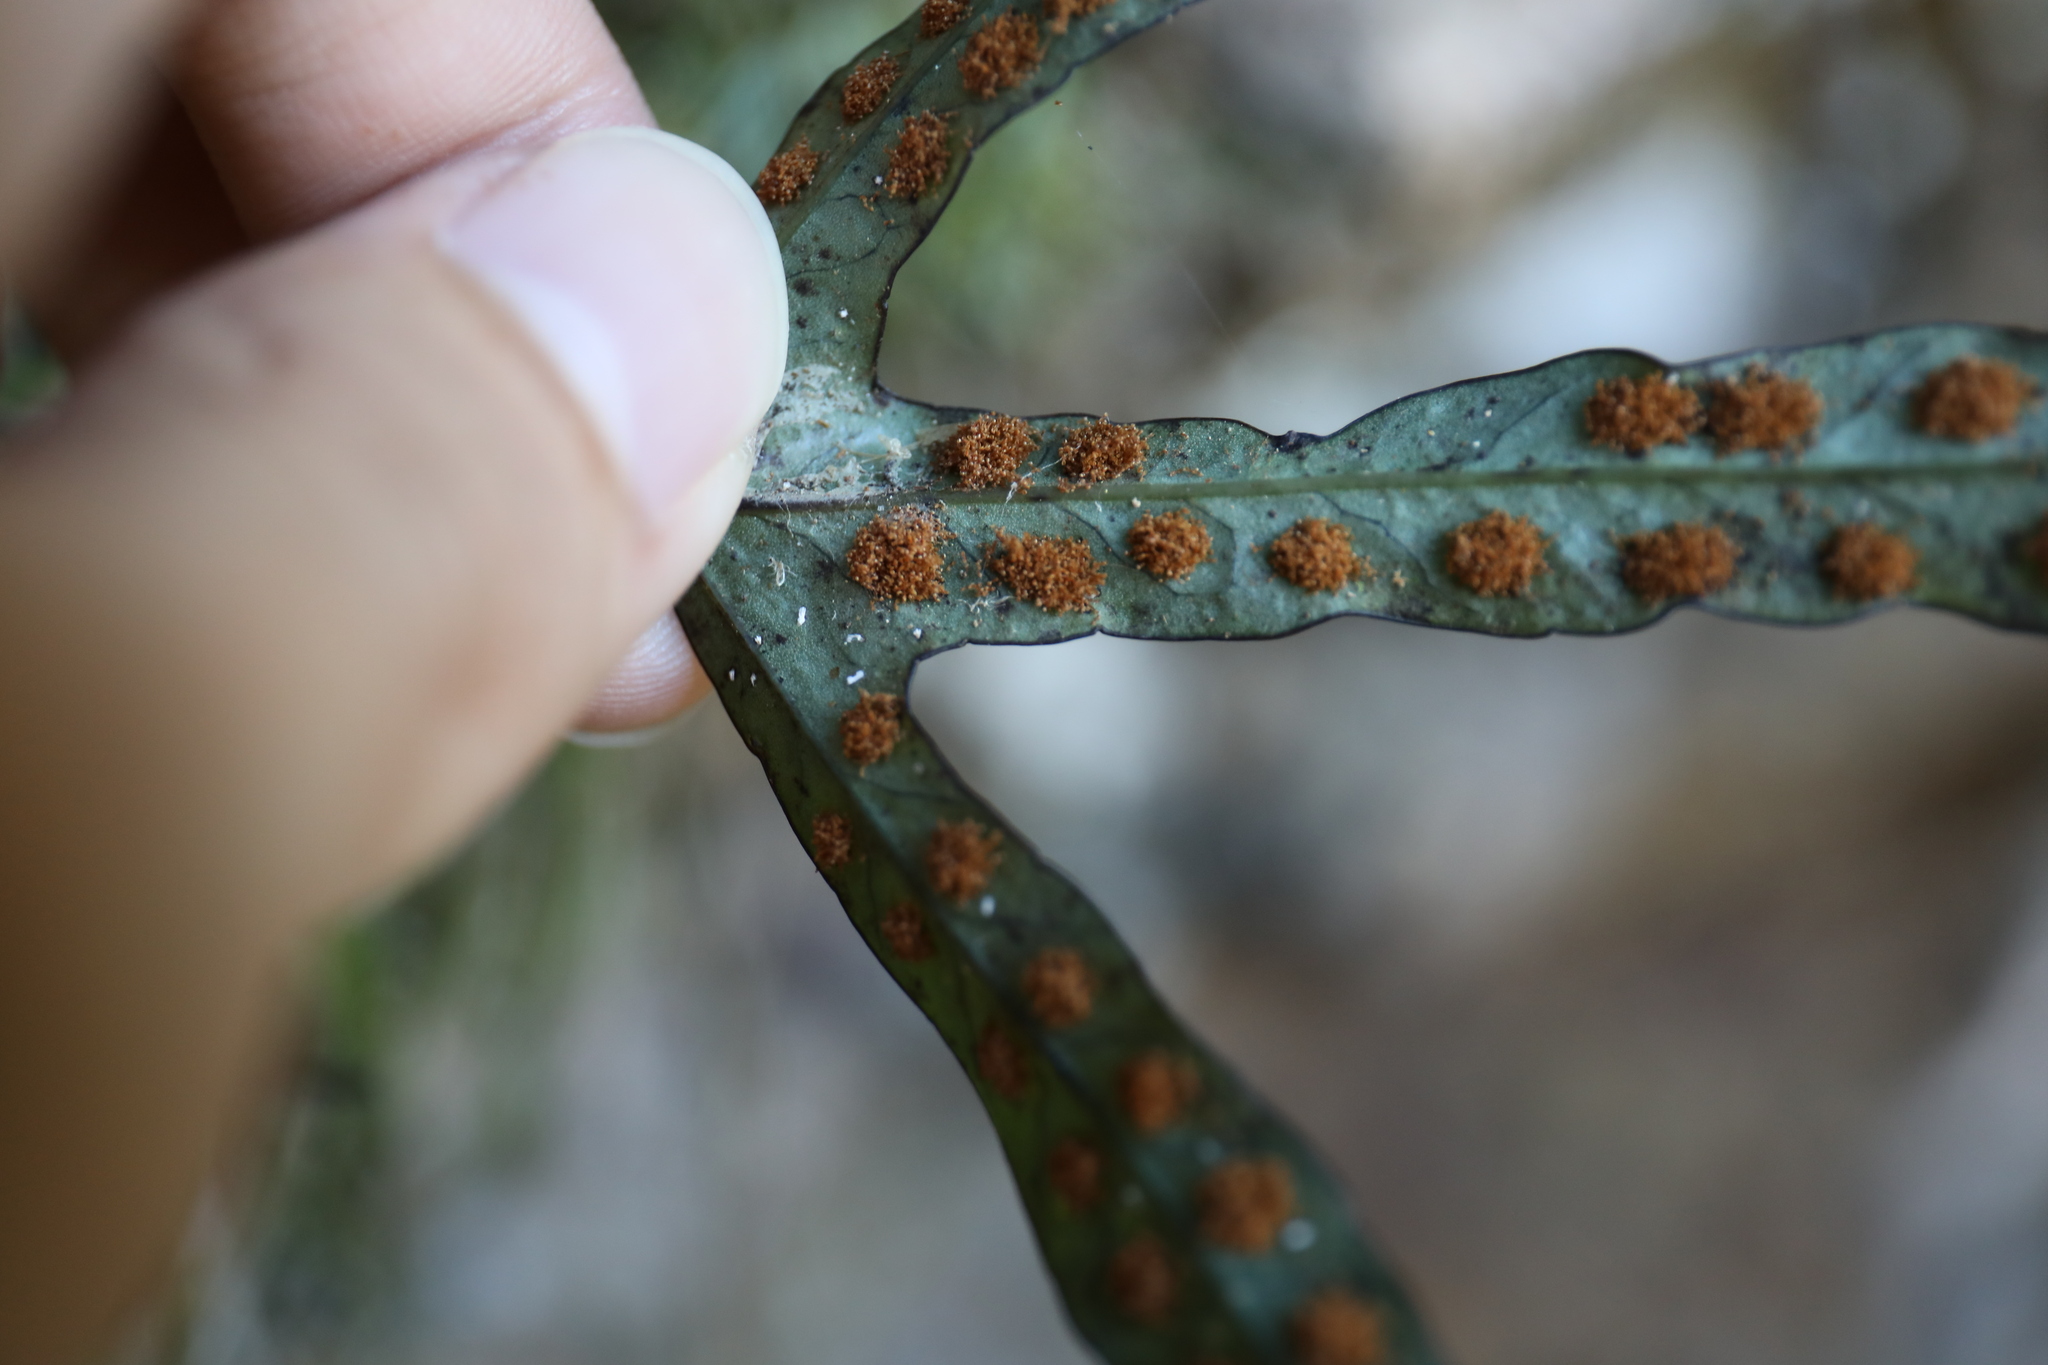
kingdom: Plantae
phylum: Tracheophyta
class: Polypodiopsida
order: Polypodiales
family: Polypodiaceae
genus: Selliguea
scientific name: Selliguea hastata
